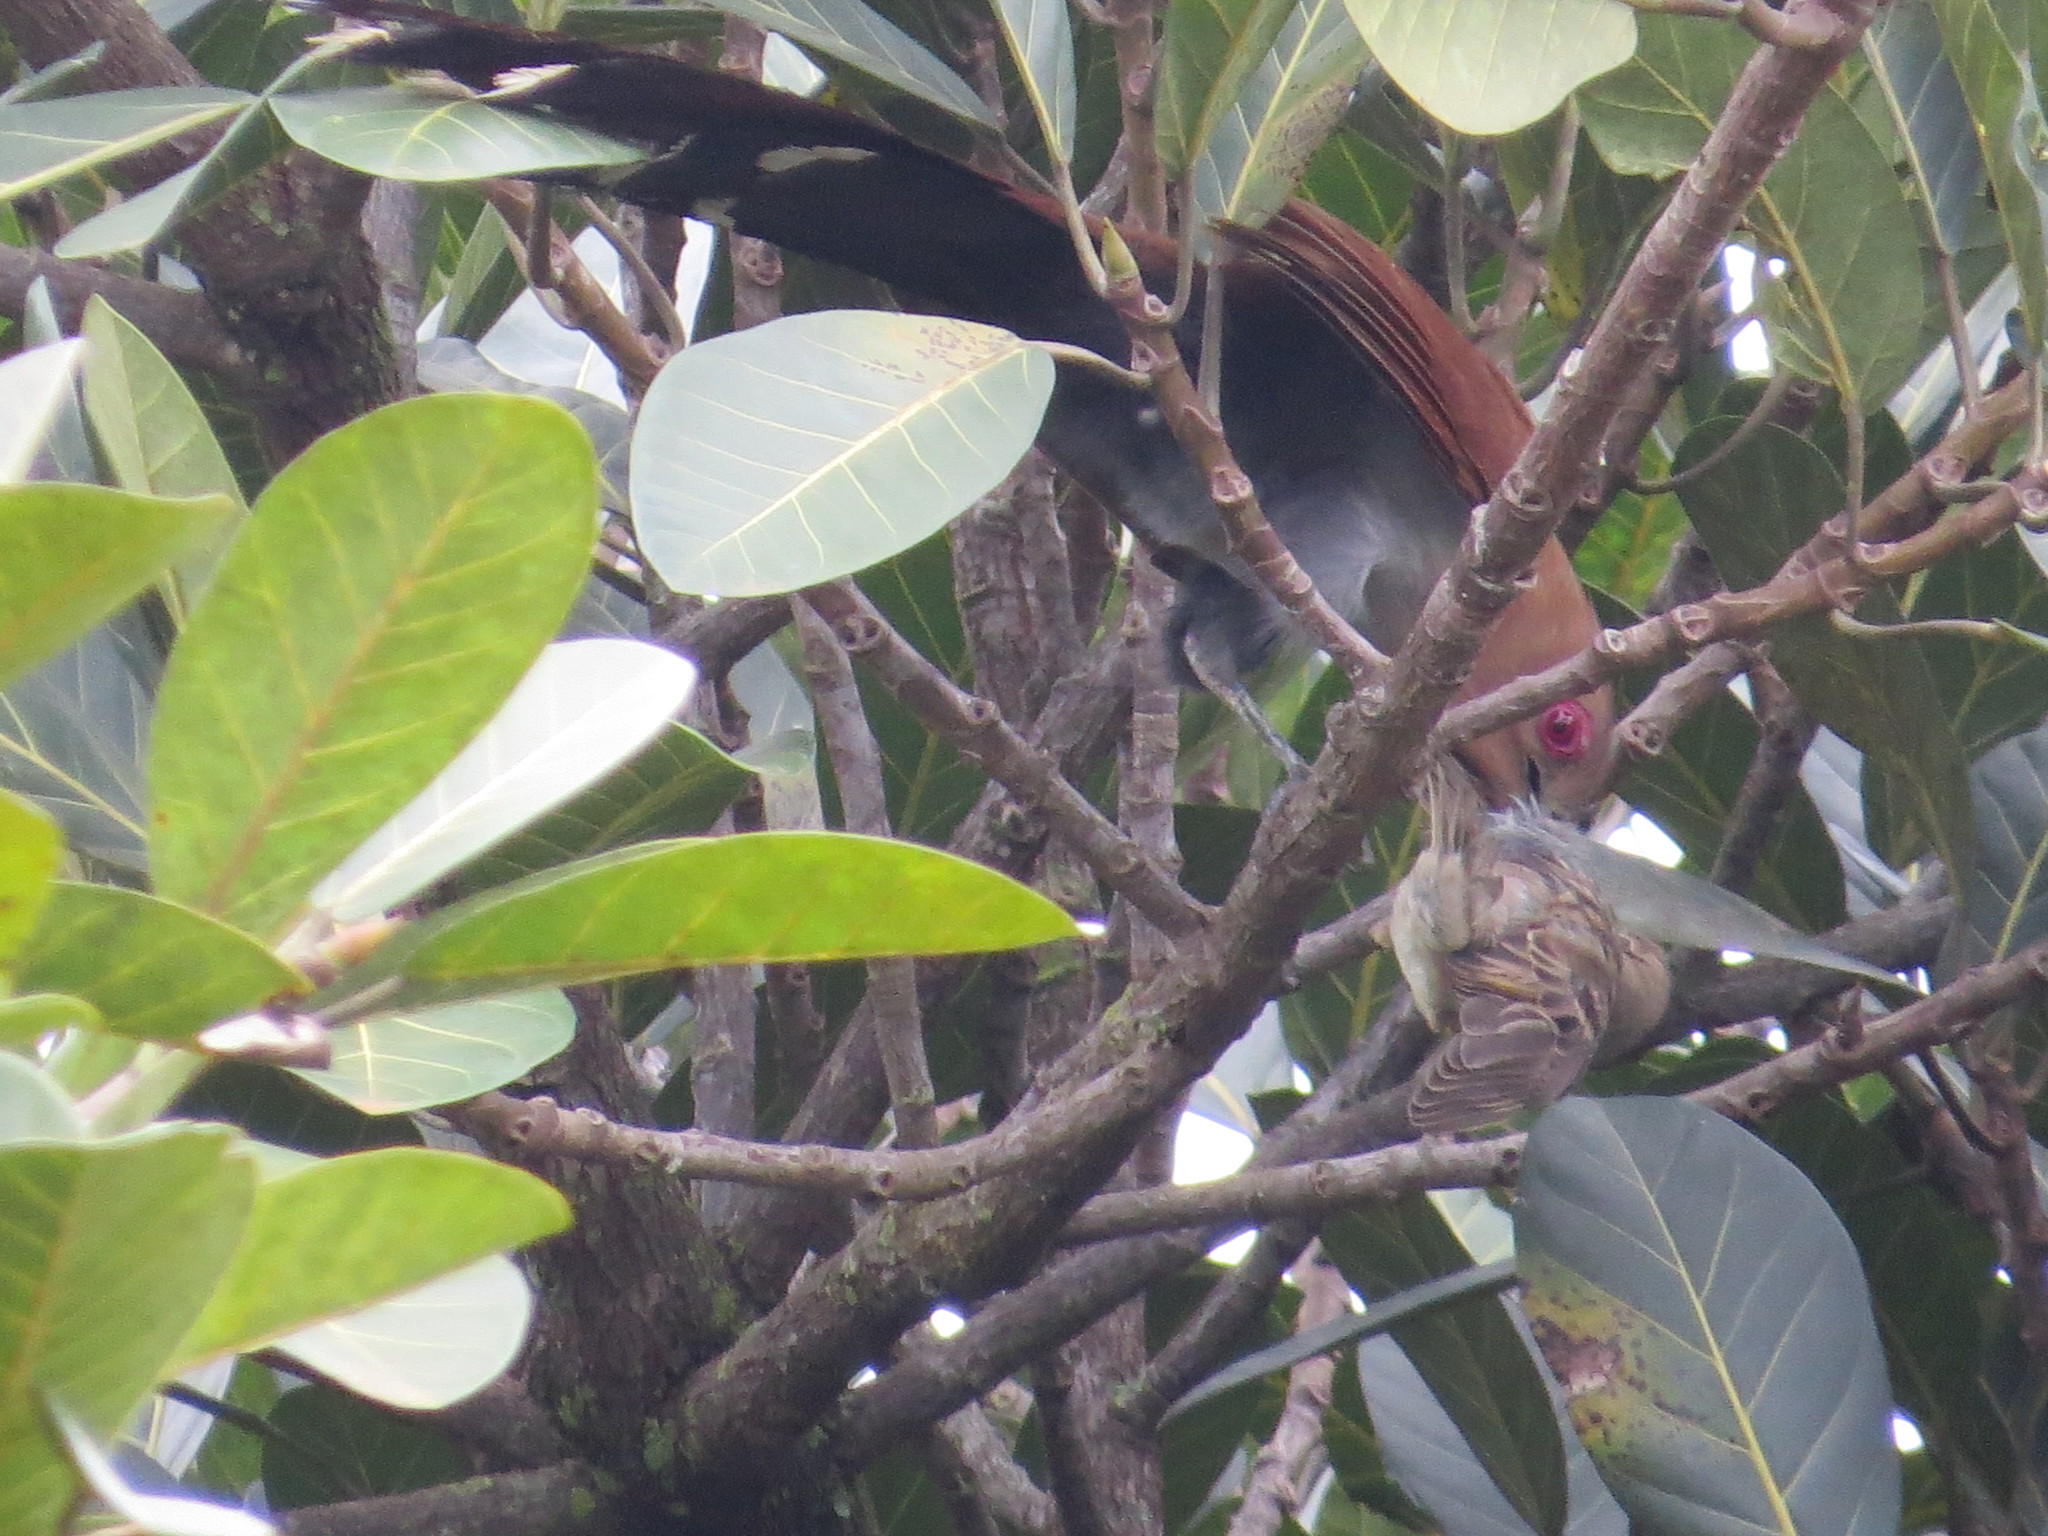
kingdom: Animalia
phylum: Chordata
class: Aves
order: Cuculiformes
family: Cuculidae
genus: Piaya
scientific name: Piaya cayana
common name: Squirrel cuckoo
